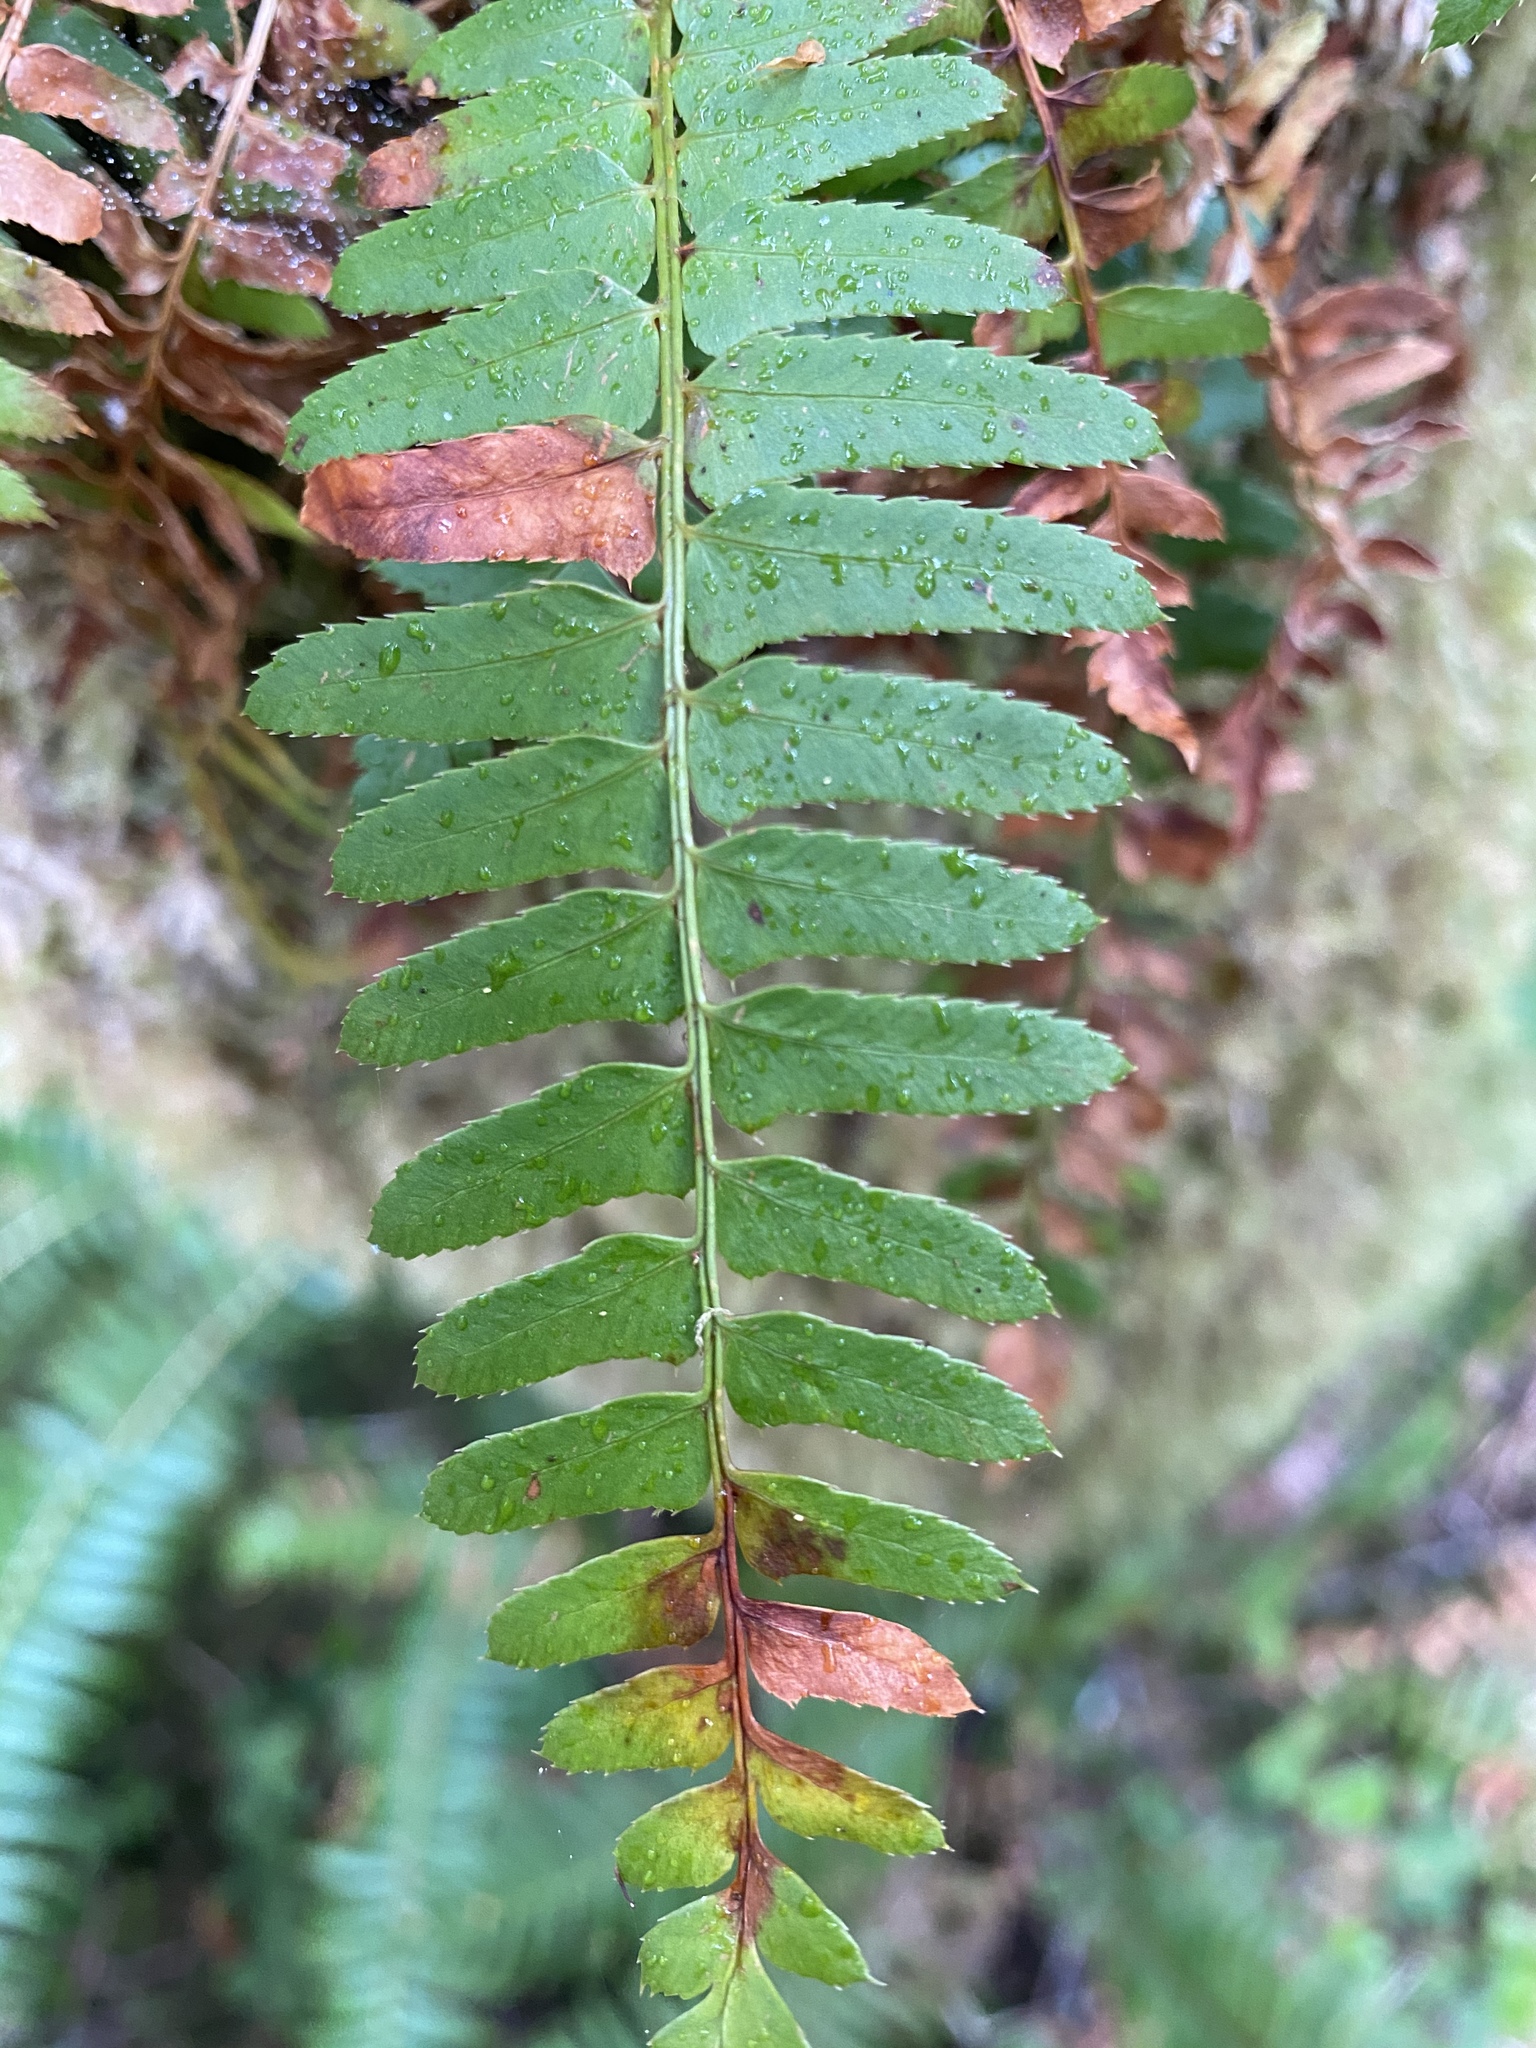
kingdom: Plantae
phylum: Tracheophyta
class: Polypodiopsida
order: Polypodiales
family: Dryopteridaceae
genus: Polystichum
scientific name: Polystichum munitum
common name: Western sword-fern
